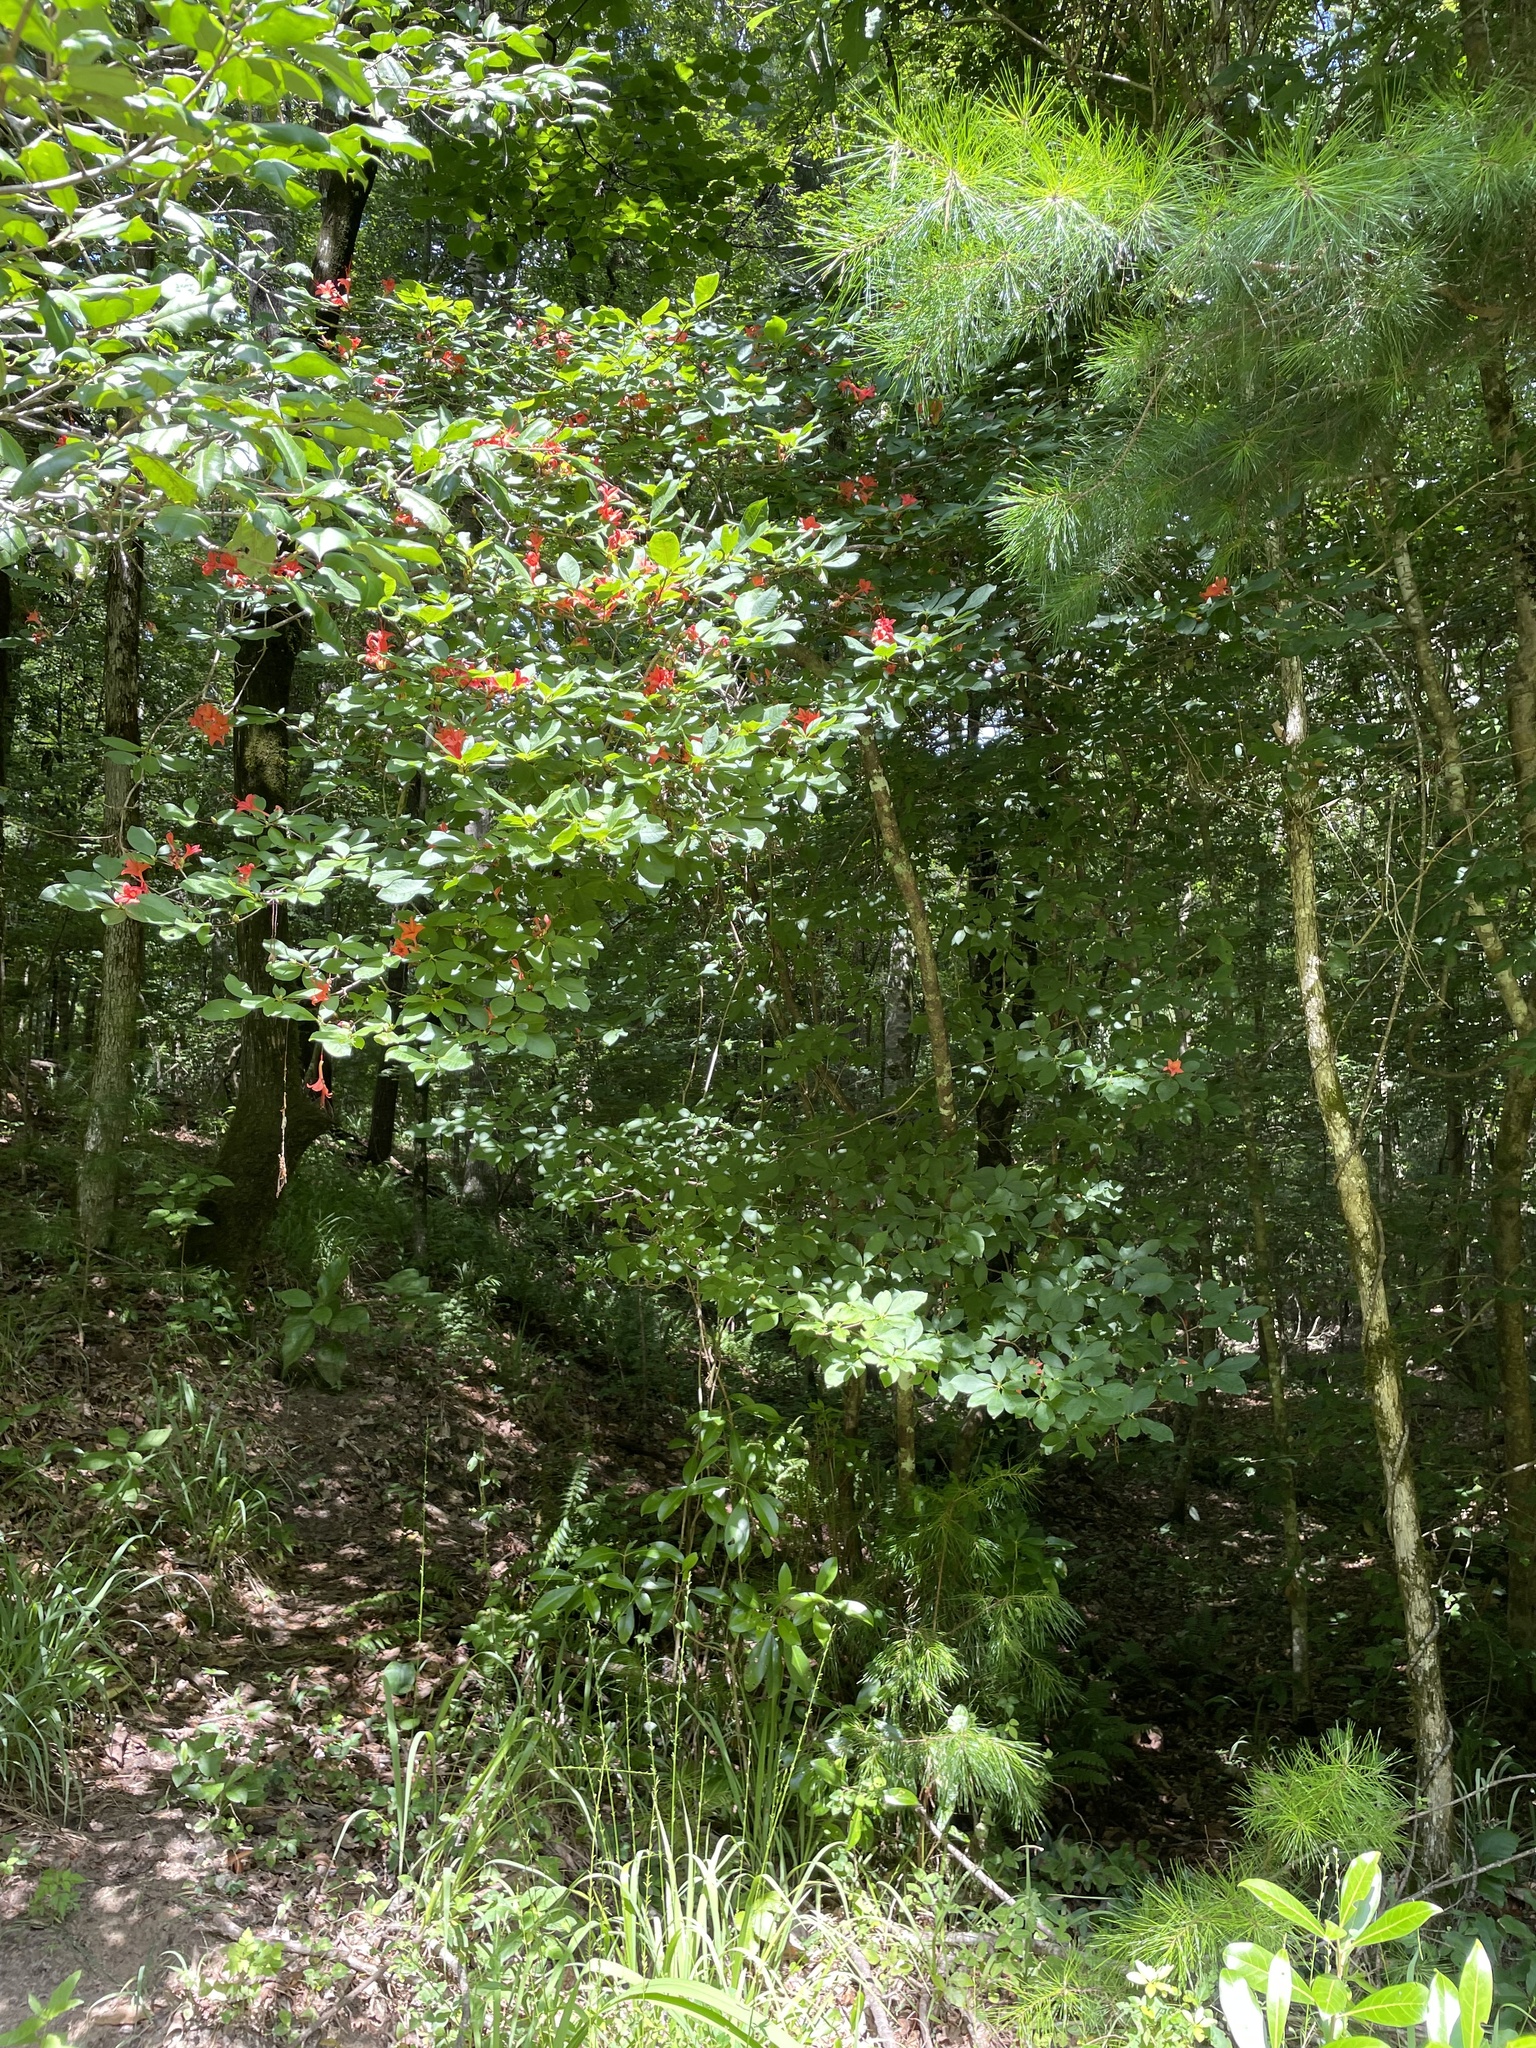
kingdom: Plantae
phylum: Tracheophyta
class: Magnoliopsida
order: Ericales
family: Ericaceae
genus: Rhododendron
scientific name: Rhododendron prunifolium
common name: Plum-leaf azalea
